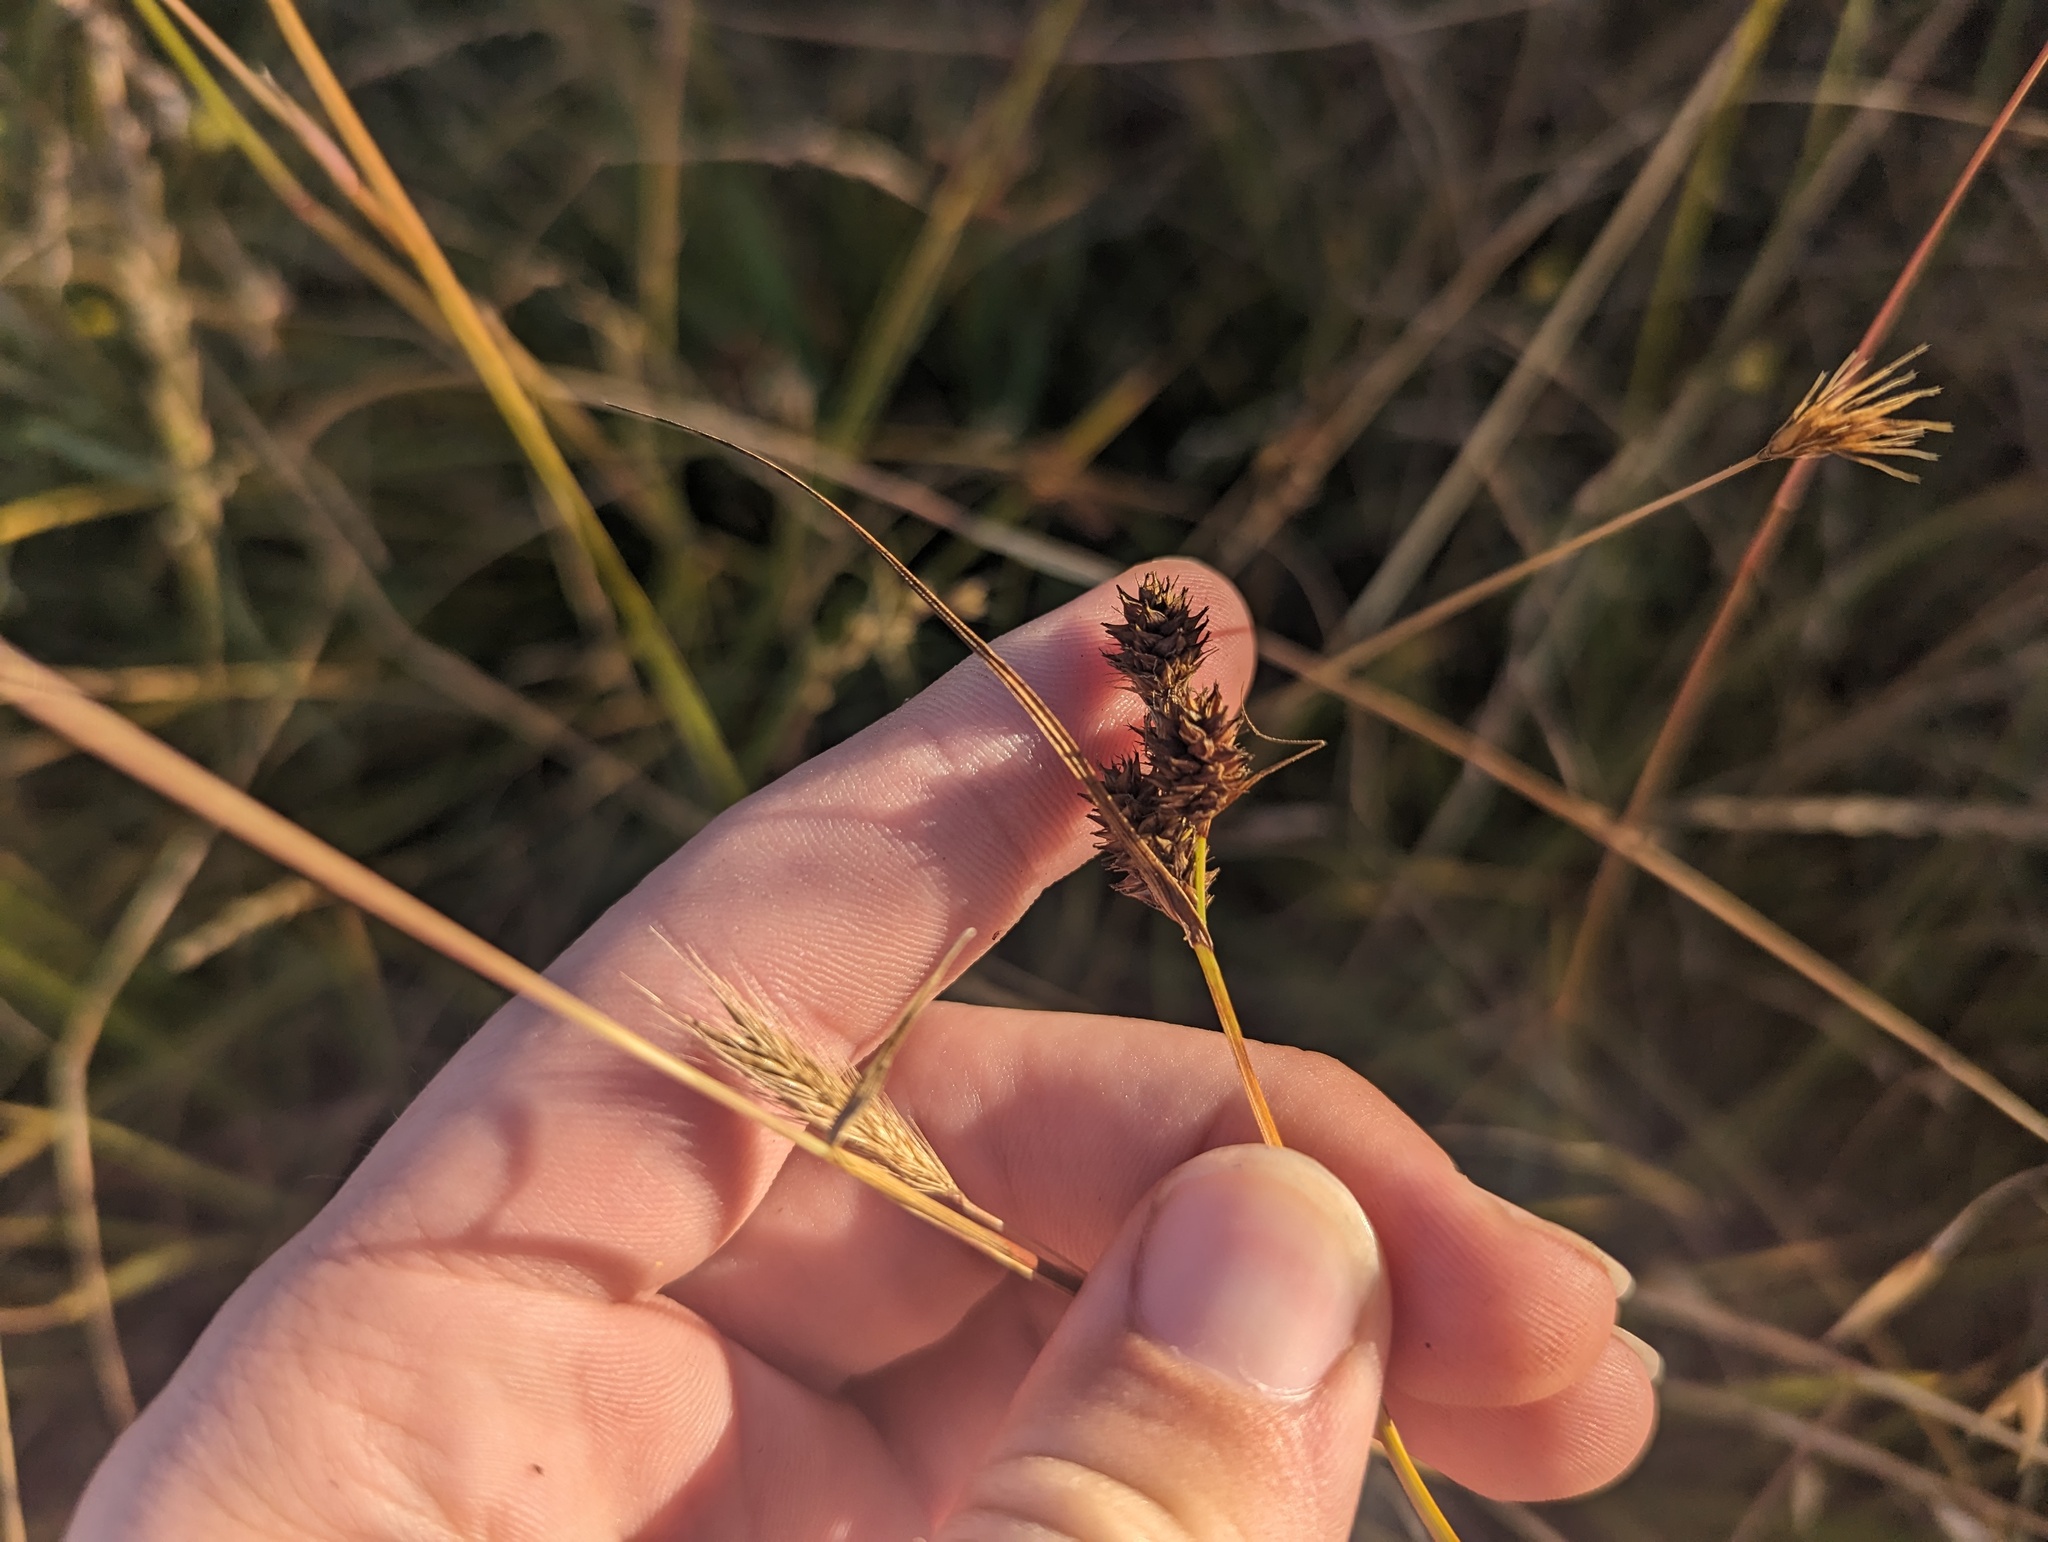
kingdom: Plantae
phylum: Tracheophyta
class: Liliopsida
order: Poales
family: Cyperaceae
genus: Carex
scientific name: Carex serratodens
